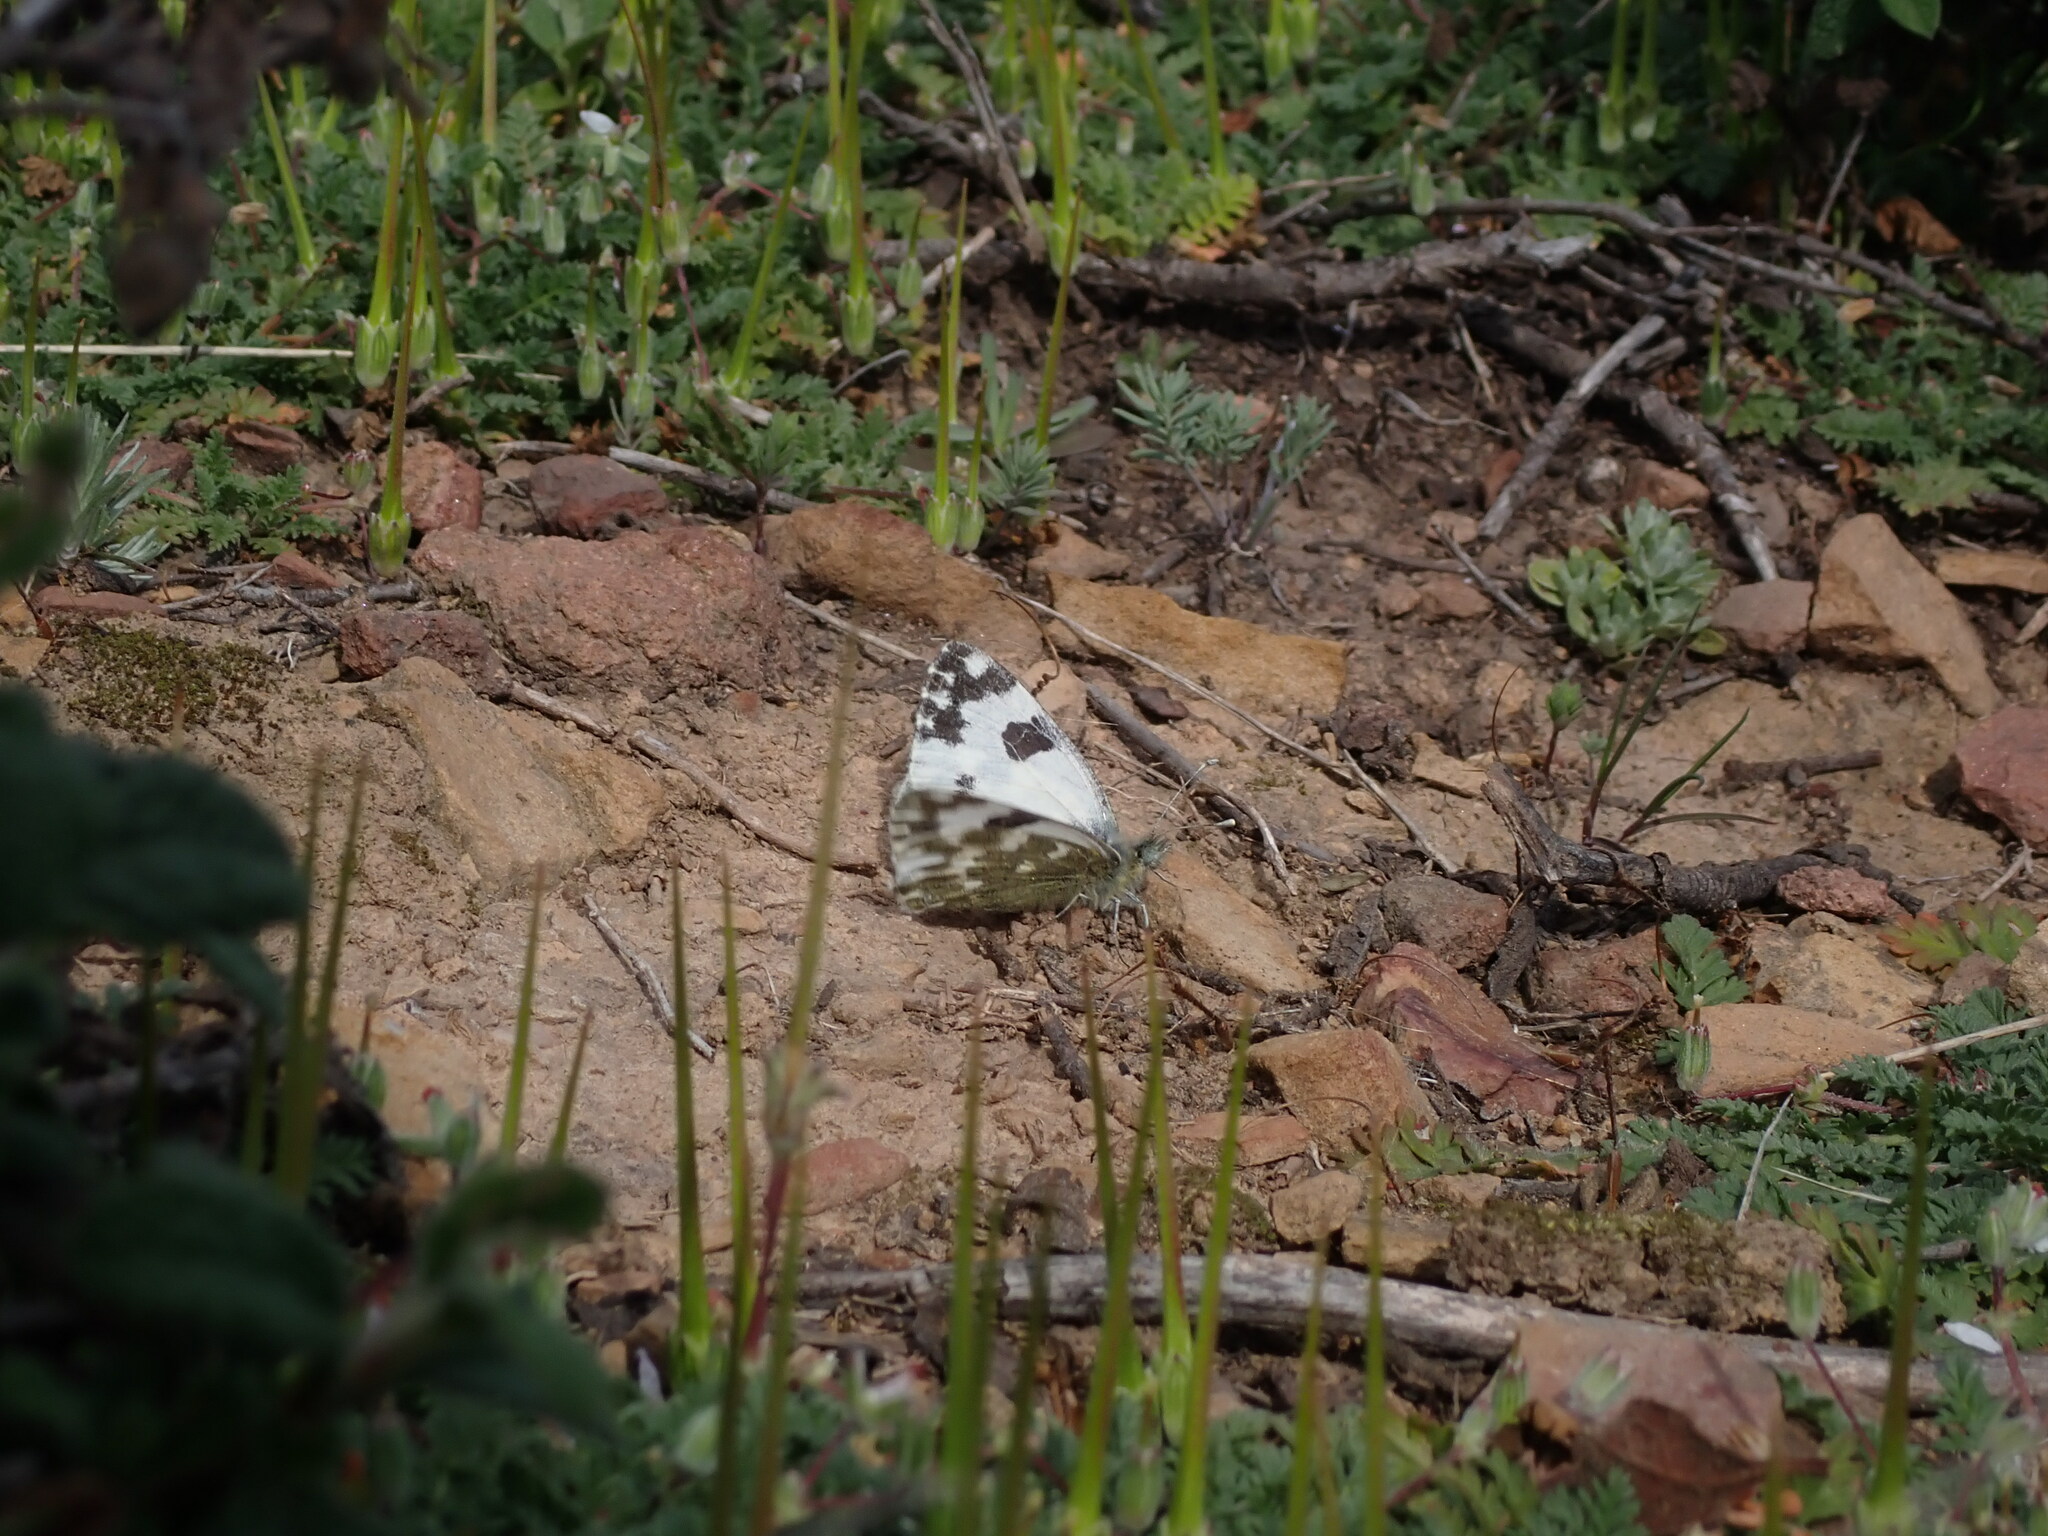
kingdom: Animalia
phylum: Arthropoda
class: Insecta
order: Lepidoptera
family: Pieridae
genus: Pontia
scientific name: Pontia daplidice
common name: Bath white
